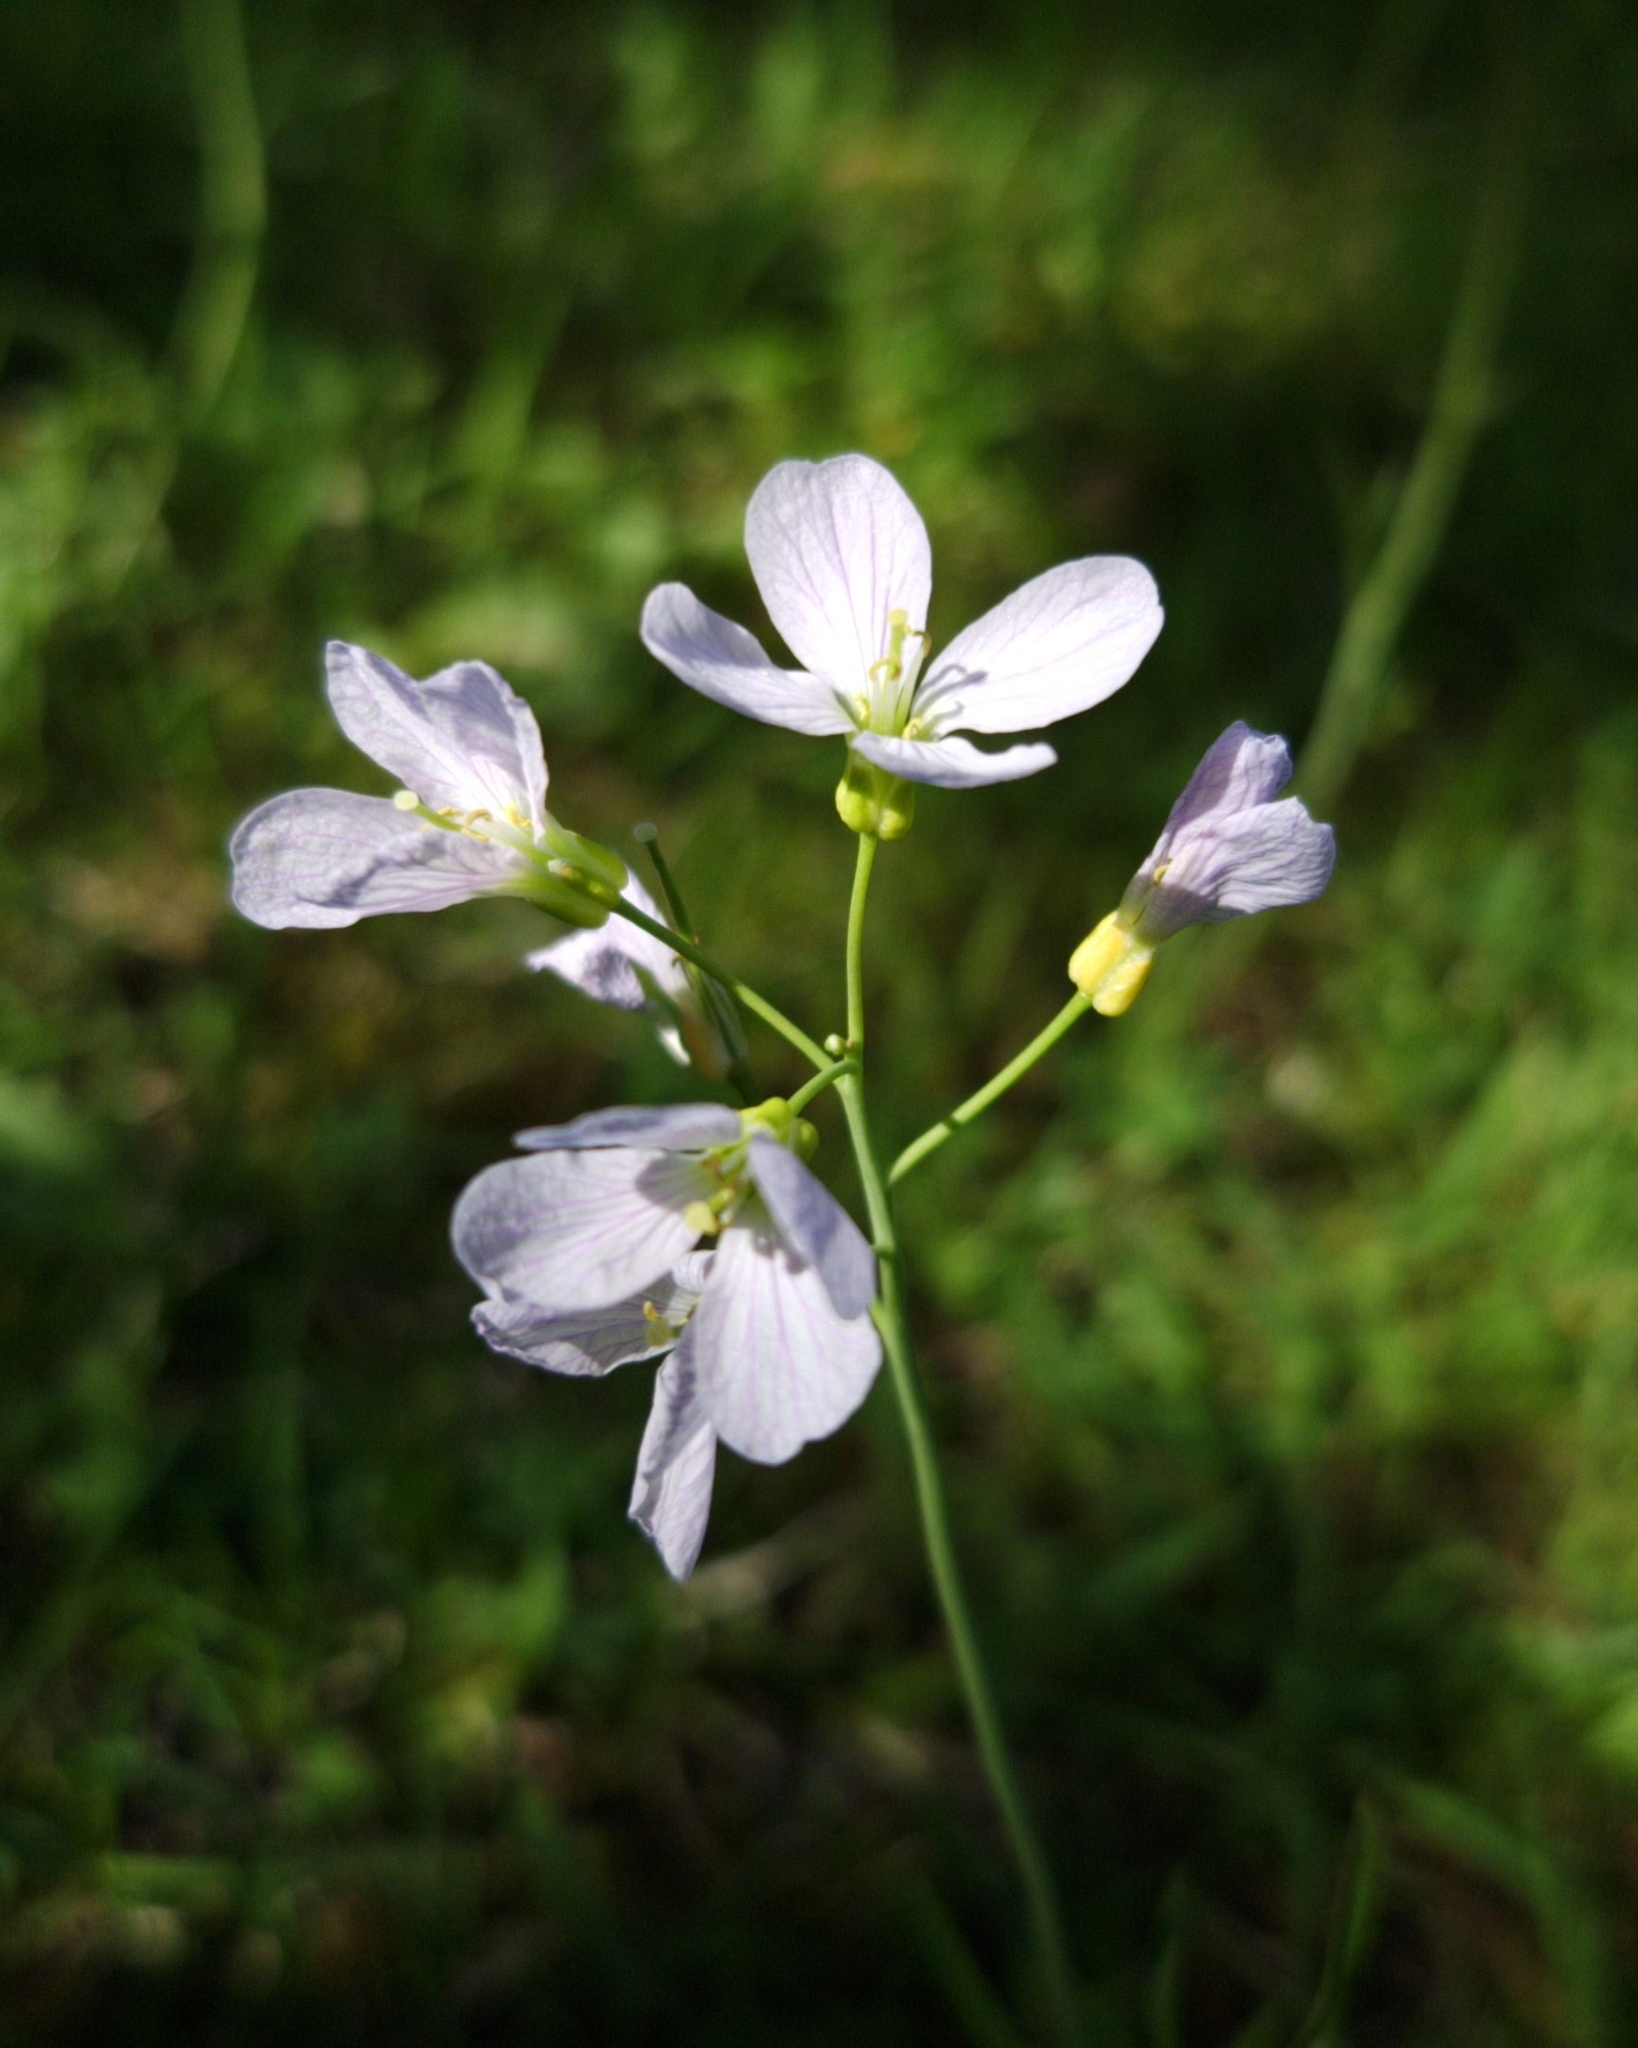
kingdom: Plantae
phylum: Tracheophyta
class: Magnoliopsida
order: Brassicales
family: Brassicaceae
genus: Cardamine
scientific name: Cardamine pratensis
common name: Cuckoo flower
